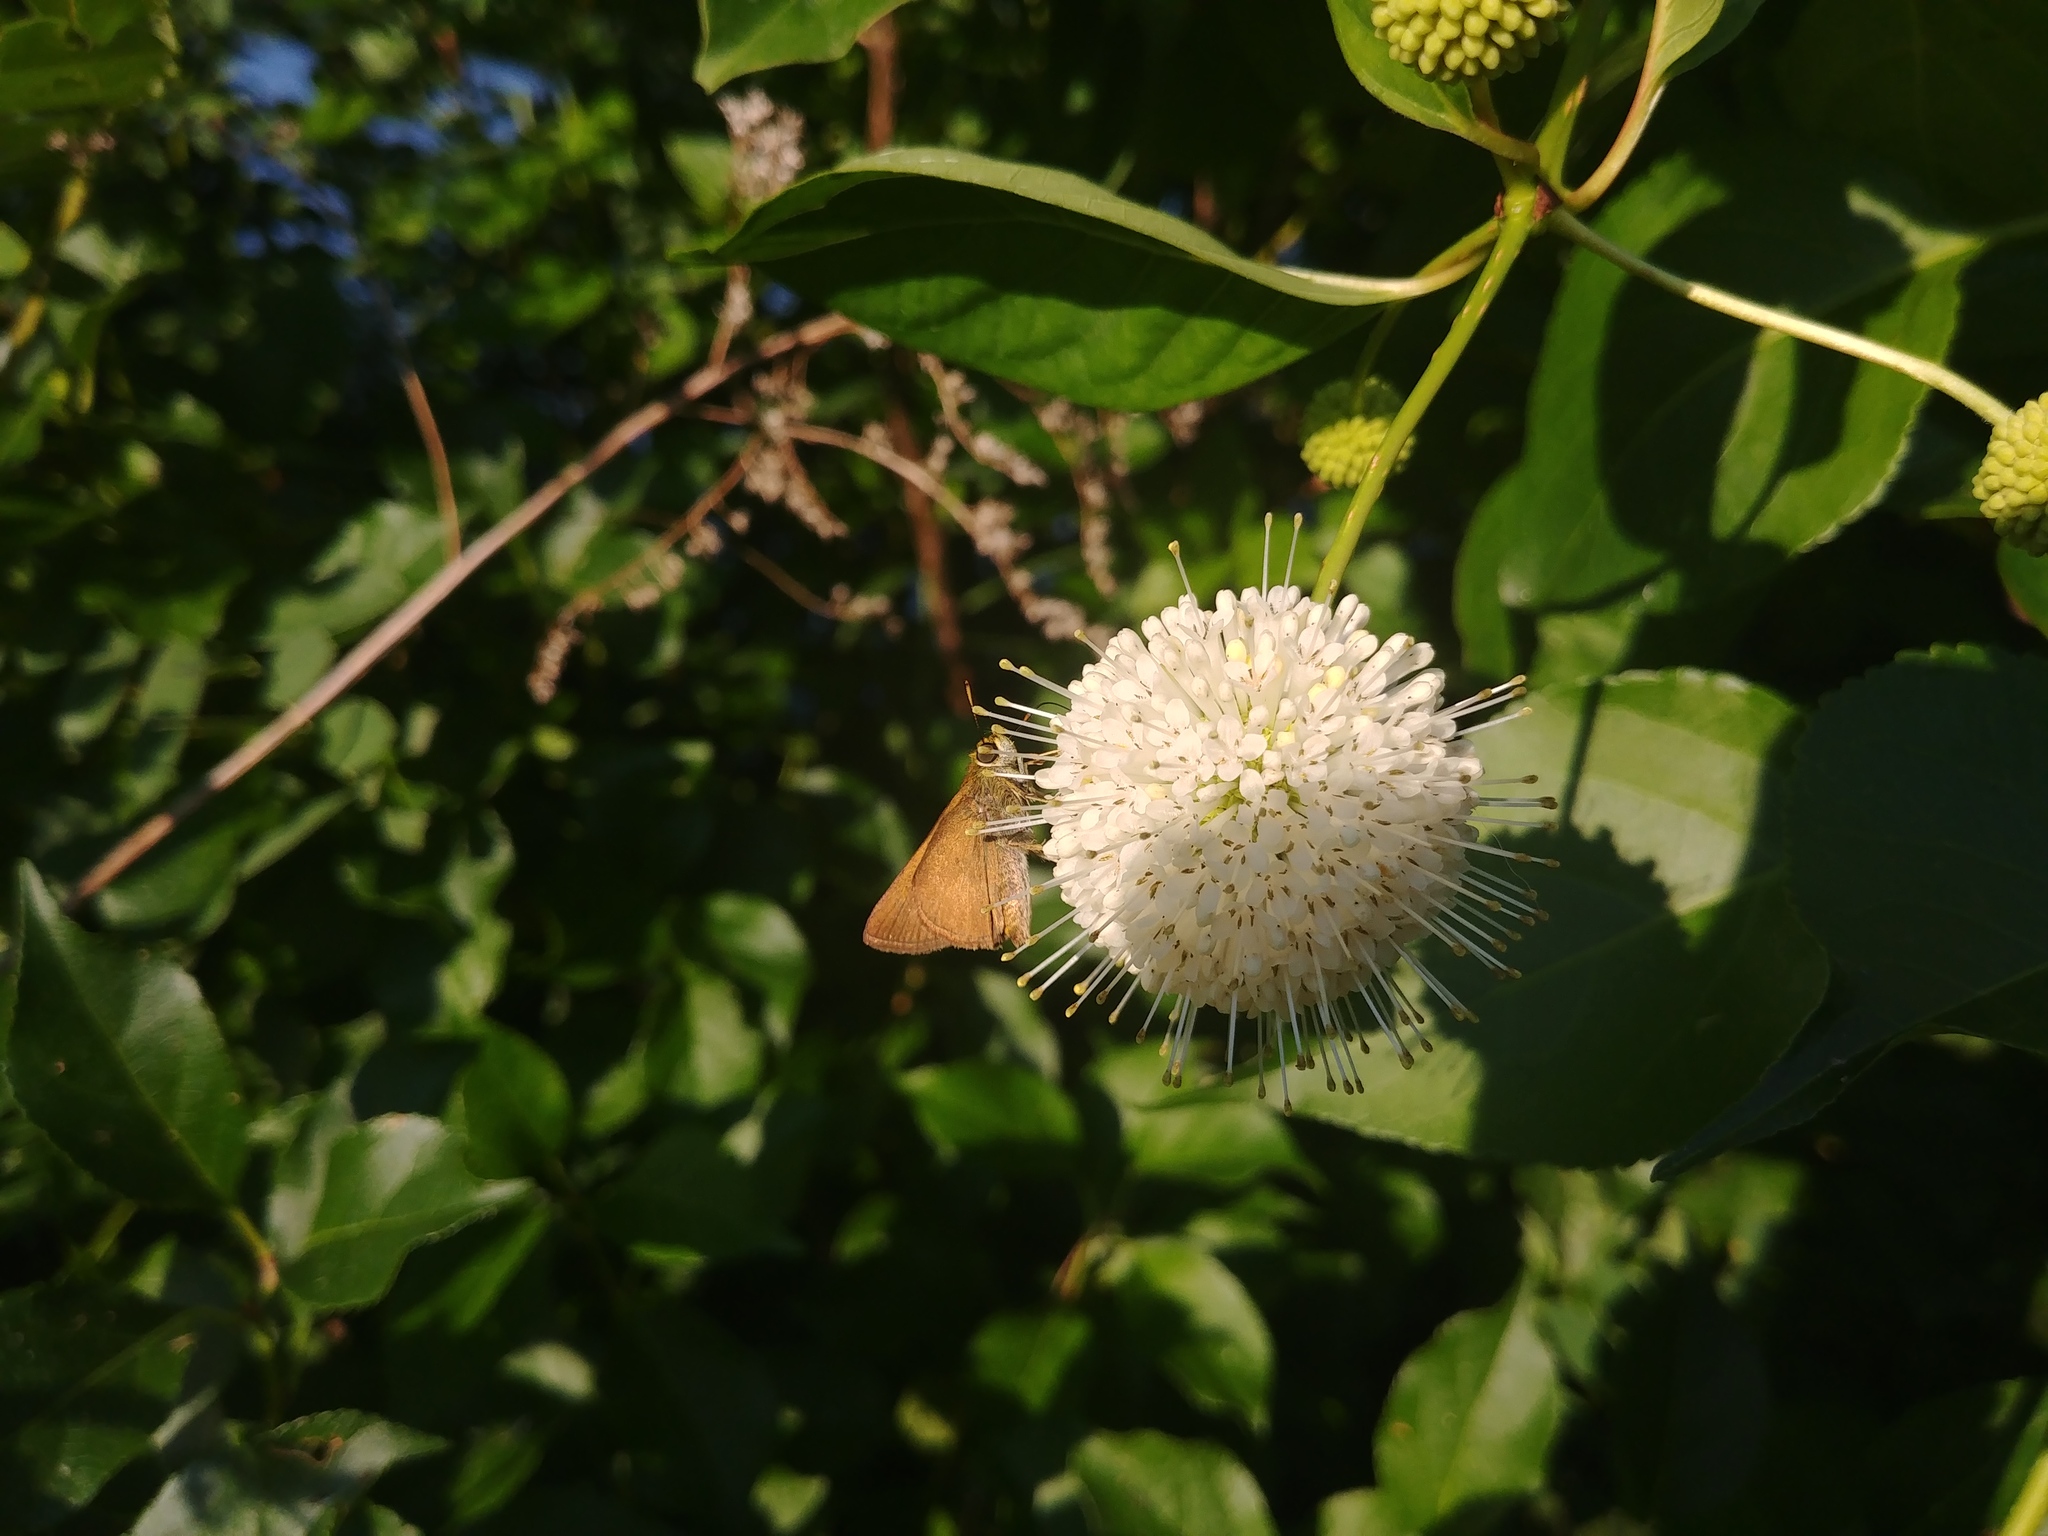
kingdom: Plantae
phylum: Tracheophyta
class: Magnoliopsida
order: Gentianales
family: Rubiaceae
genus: Cephalanthus
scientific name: Cephalanthus occidentalis
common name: Button-willow
